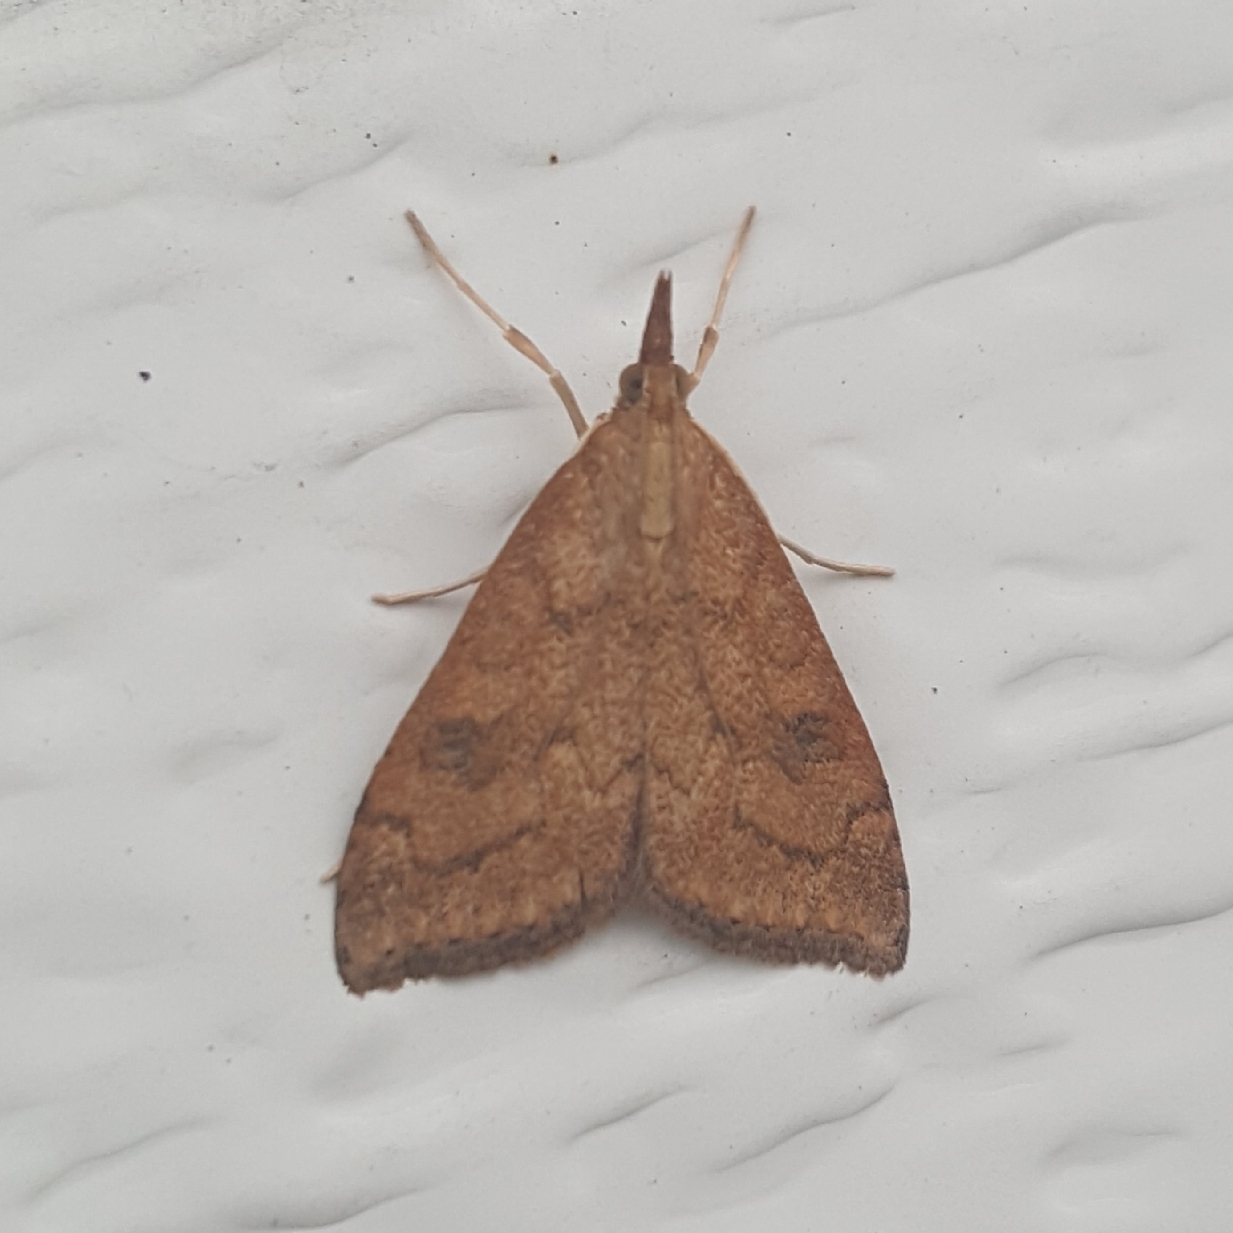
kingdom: Animalia
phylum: Arthropoda
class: Insecta
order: Lepidoptera
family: Crambidae
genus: Udea
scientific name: Udea profundalis
